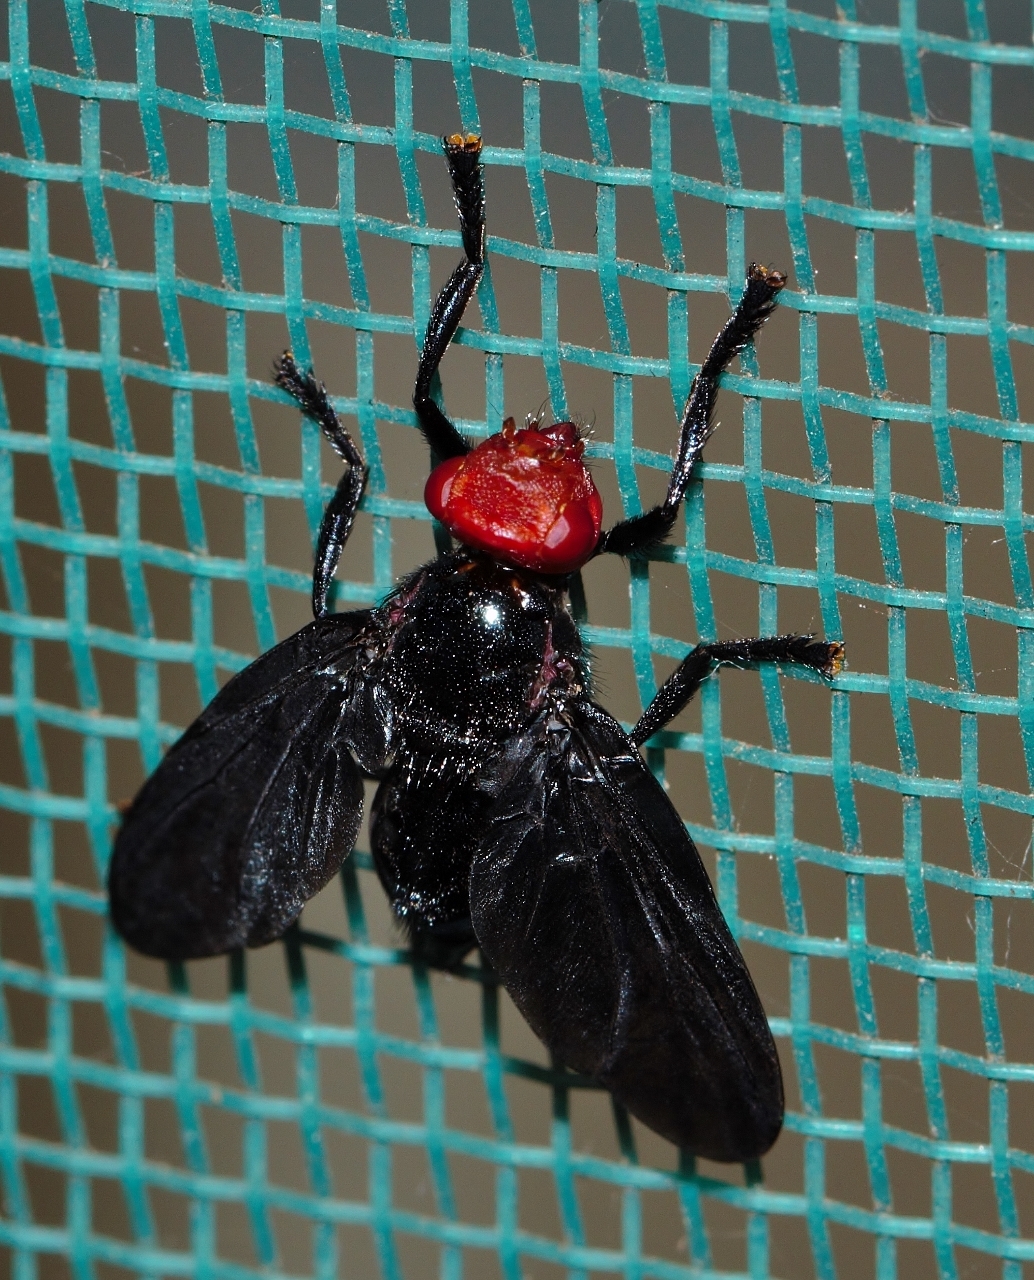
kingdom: Animalia
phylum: Arthropoda
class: Insecta
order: Diptera
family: Platystomatidae
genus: Bromophila
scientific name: Bromophila caffra
